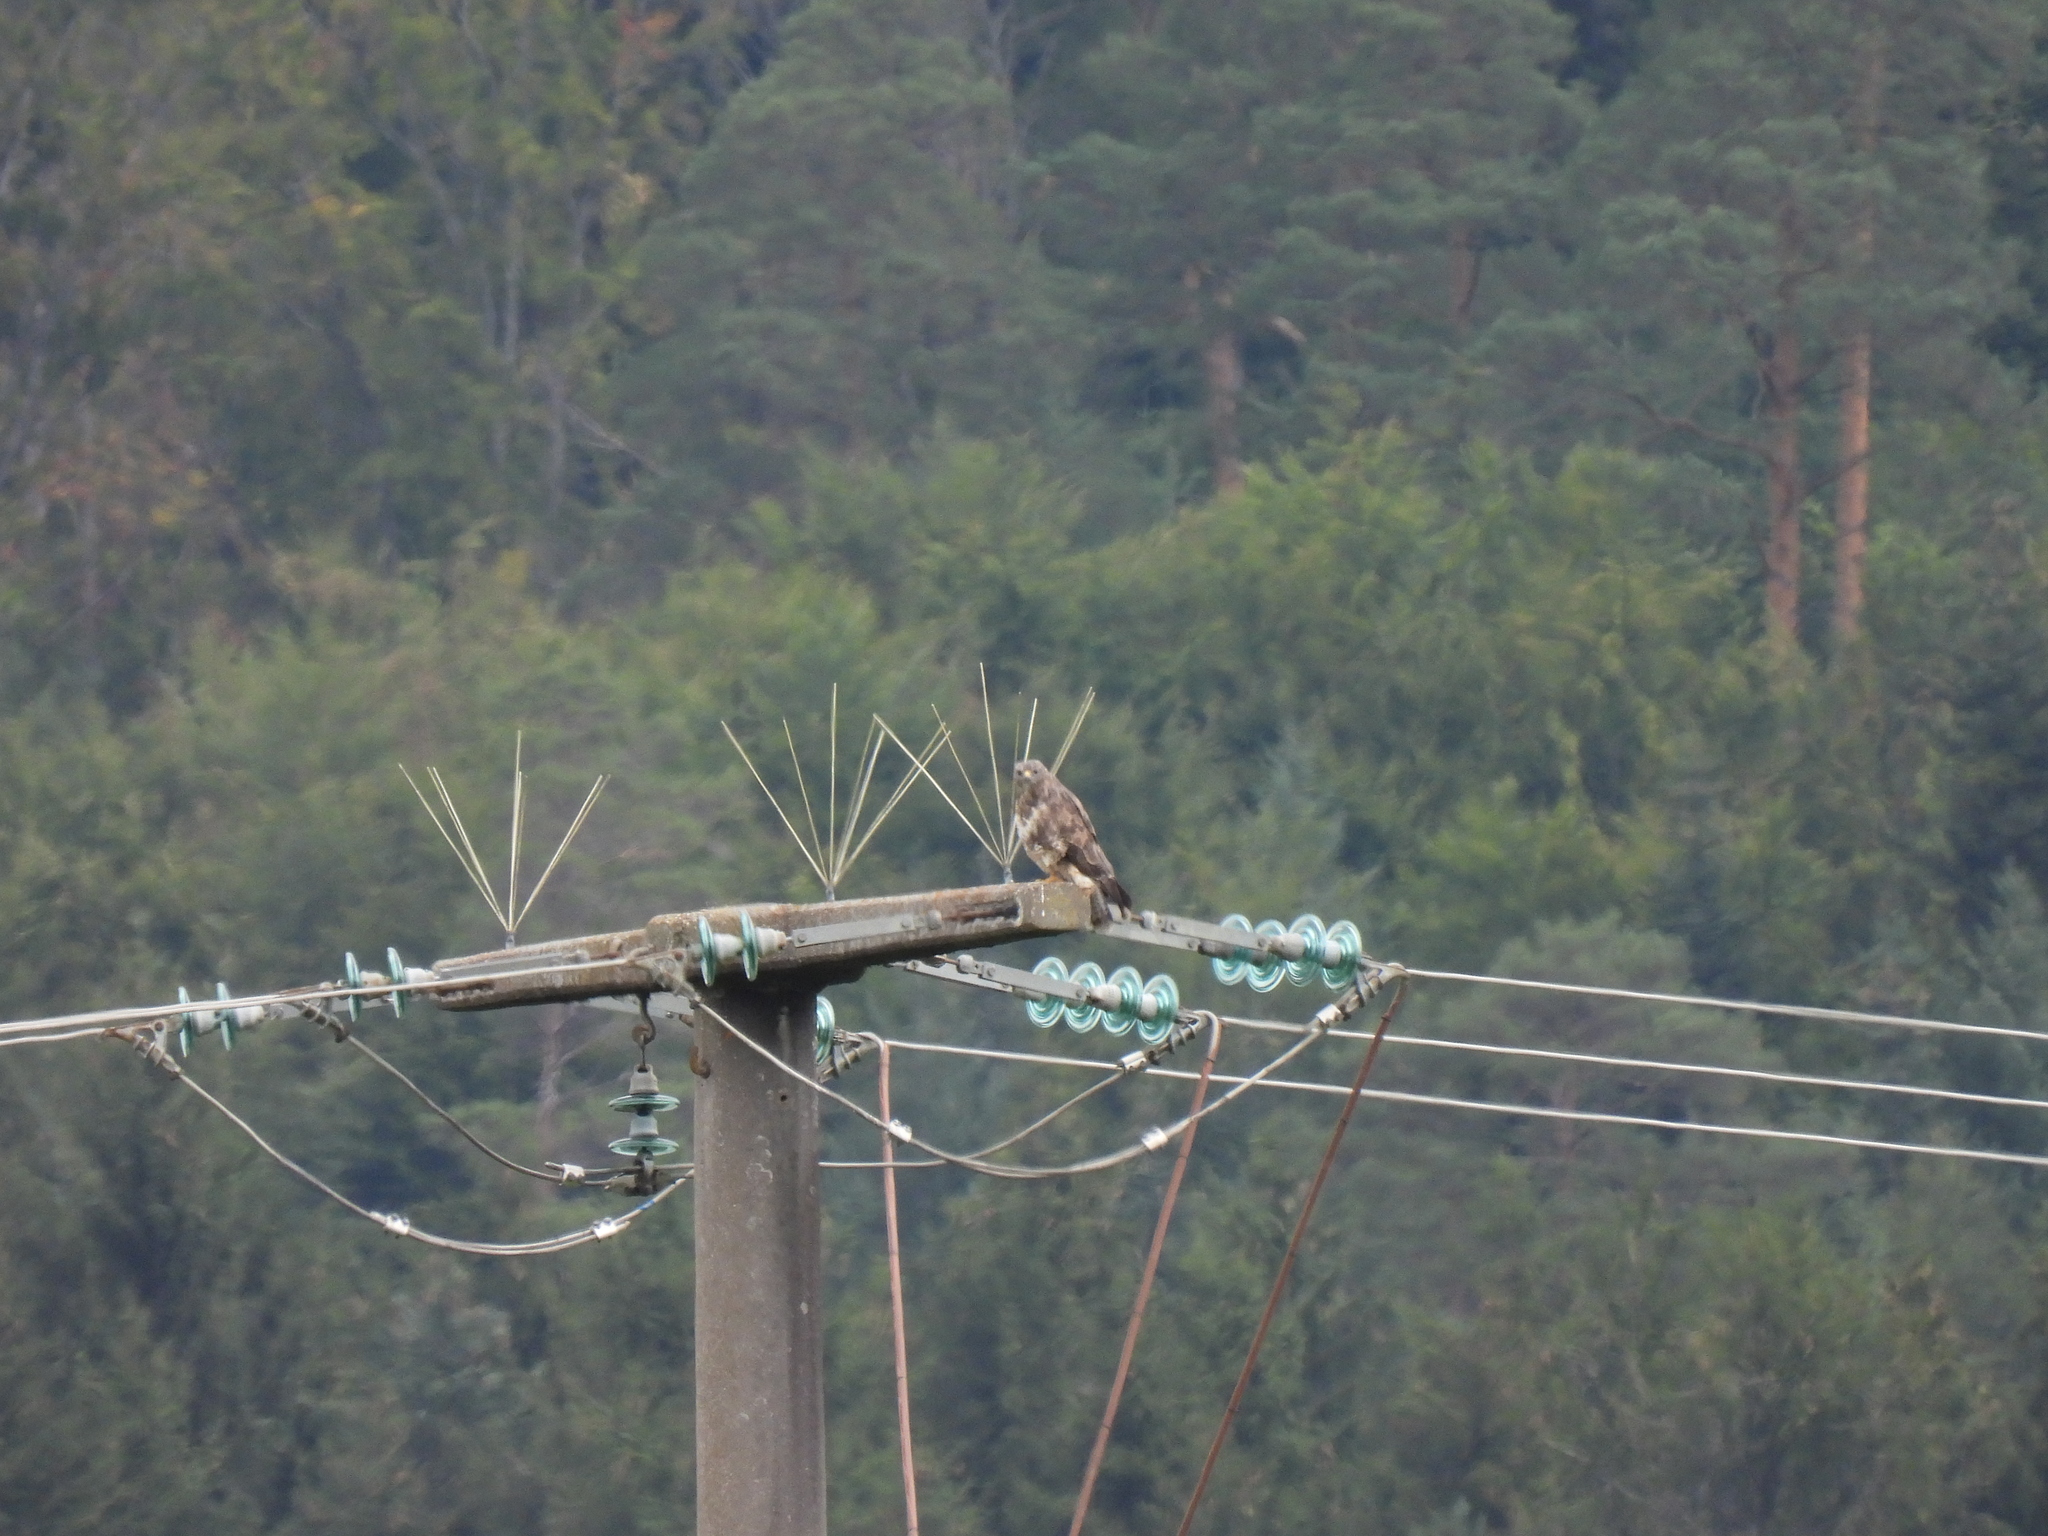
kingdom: Animalia
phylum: Chordata
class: Aves
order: Accipitriformes
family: Accipitridae
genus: Buteo
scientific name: Buteo buteo
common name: Common buzzard
